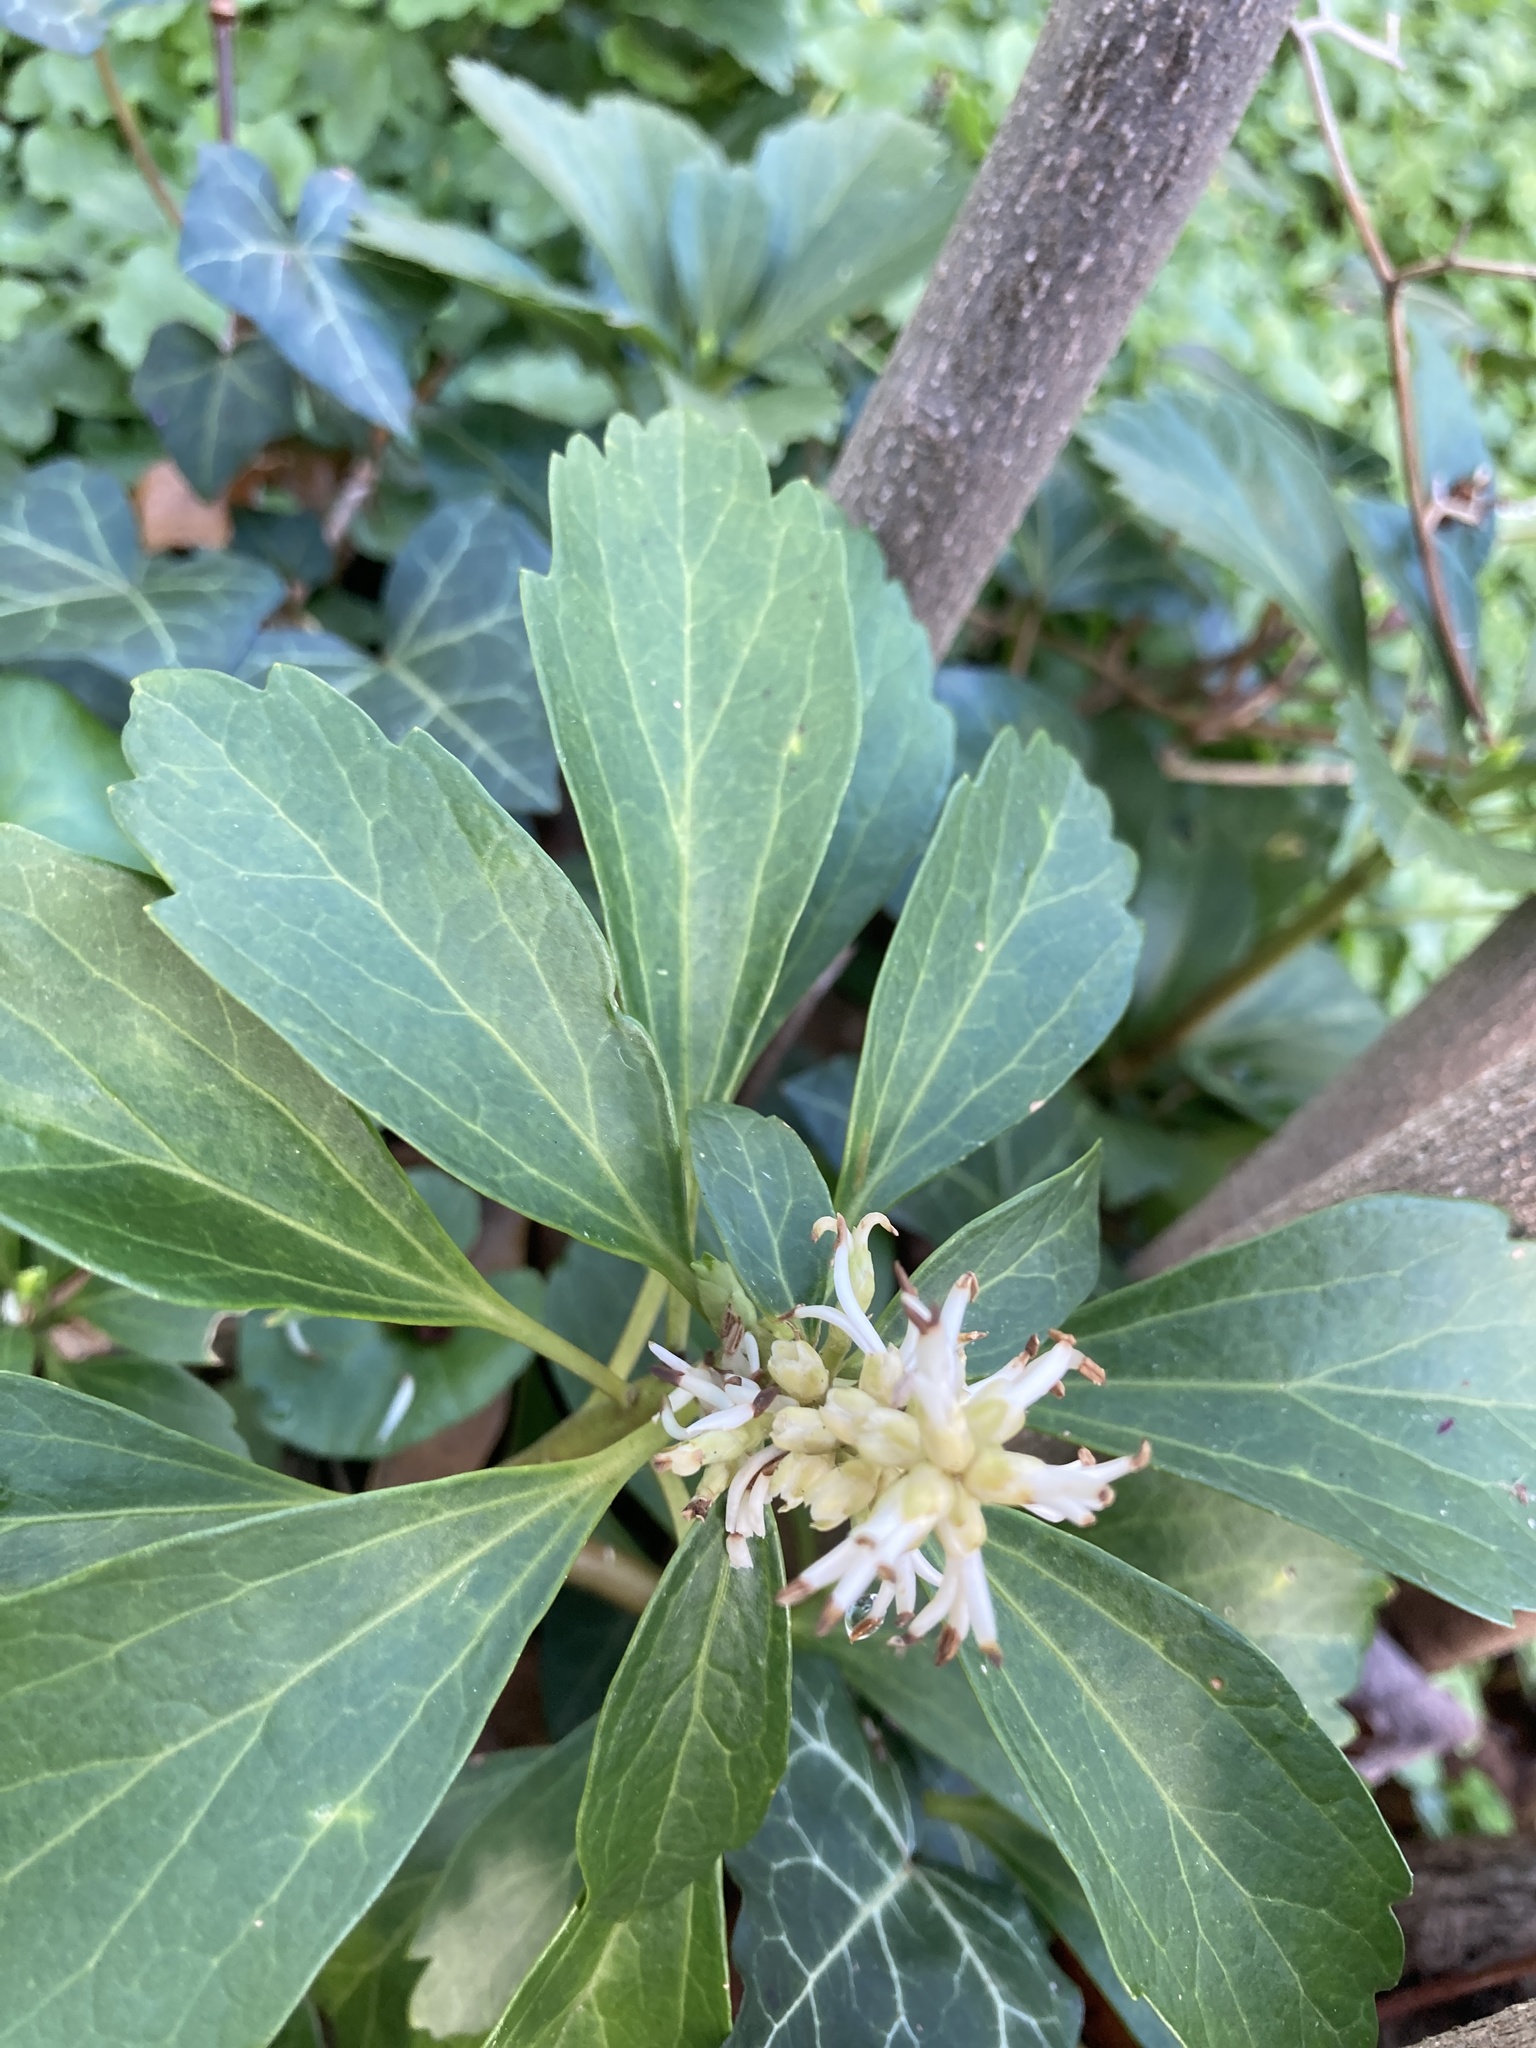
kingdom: Plantae
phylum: Tracheophyta
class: Magnoliopsida
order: Buxales
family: Buxaceae
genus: Pachysandra
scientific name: Pachysandra terminalis
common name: Japanese pachysandra
